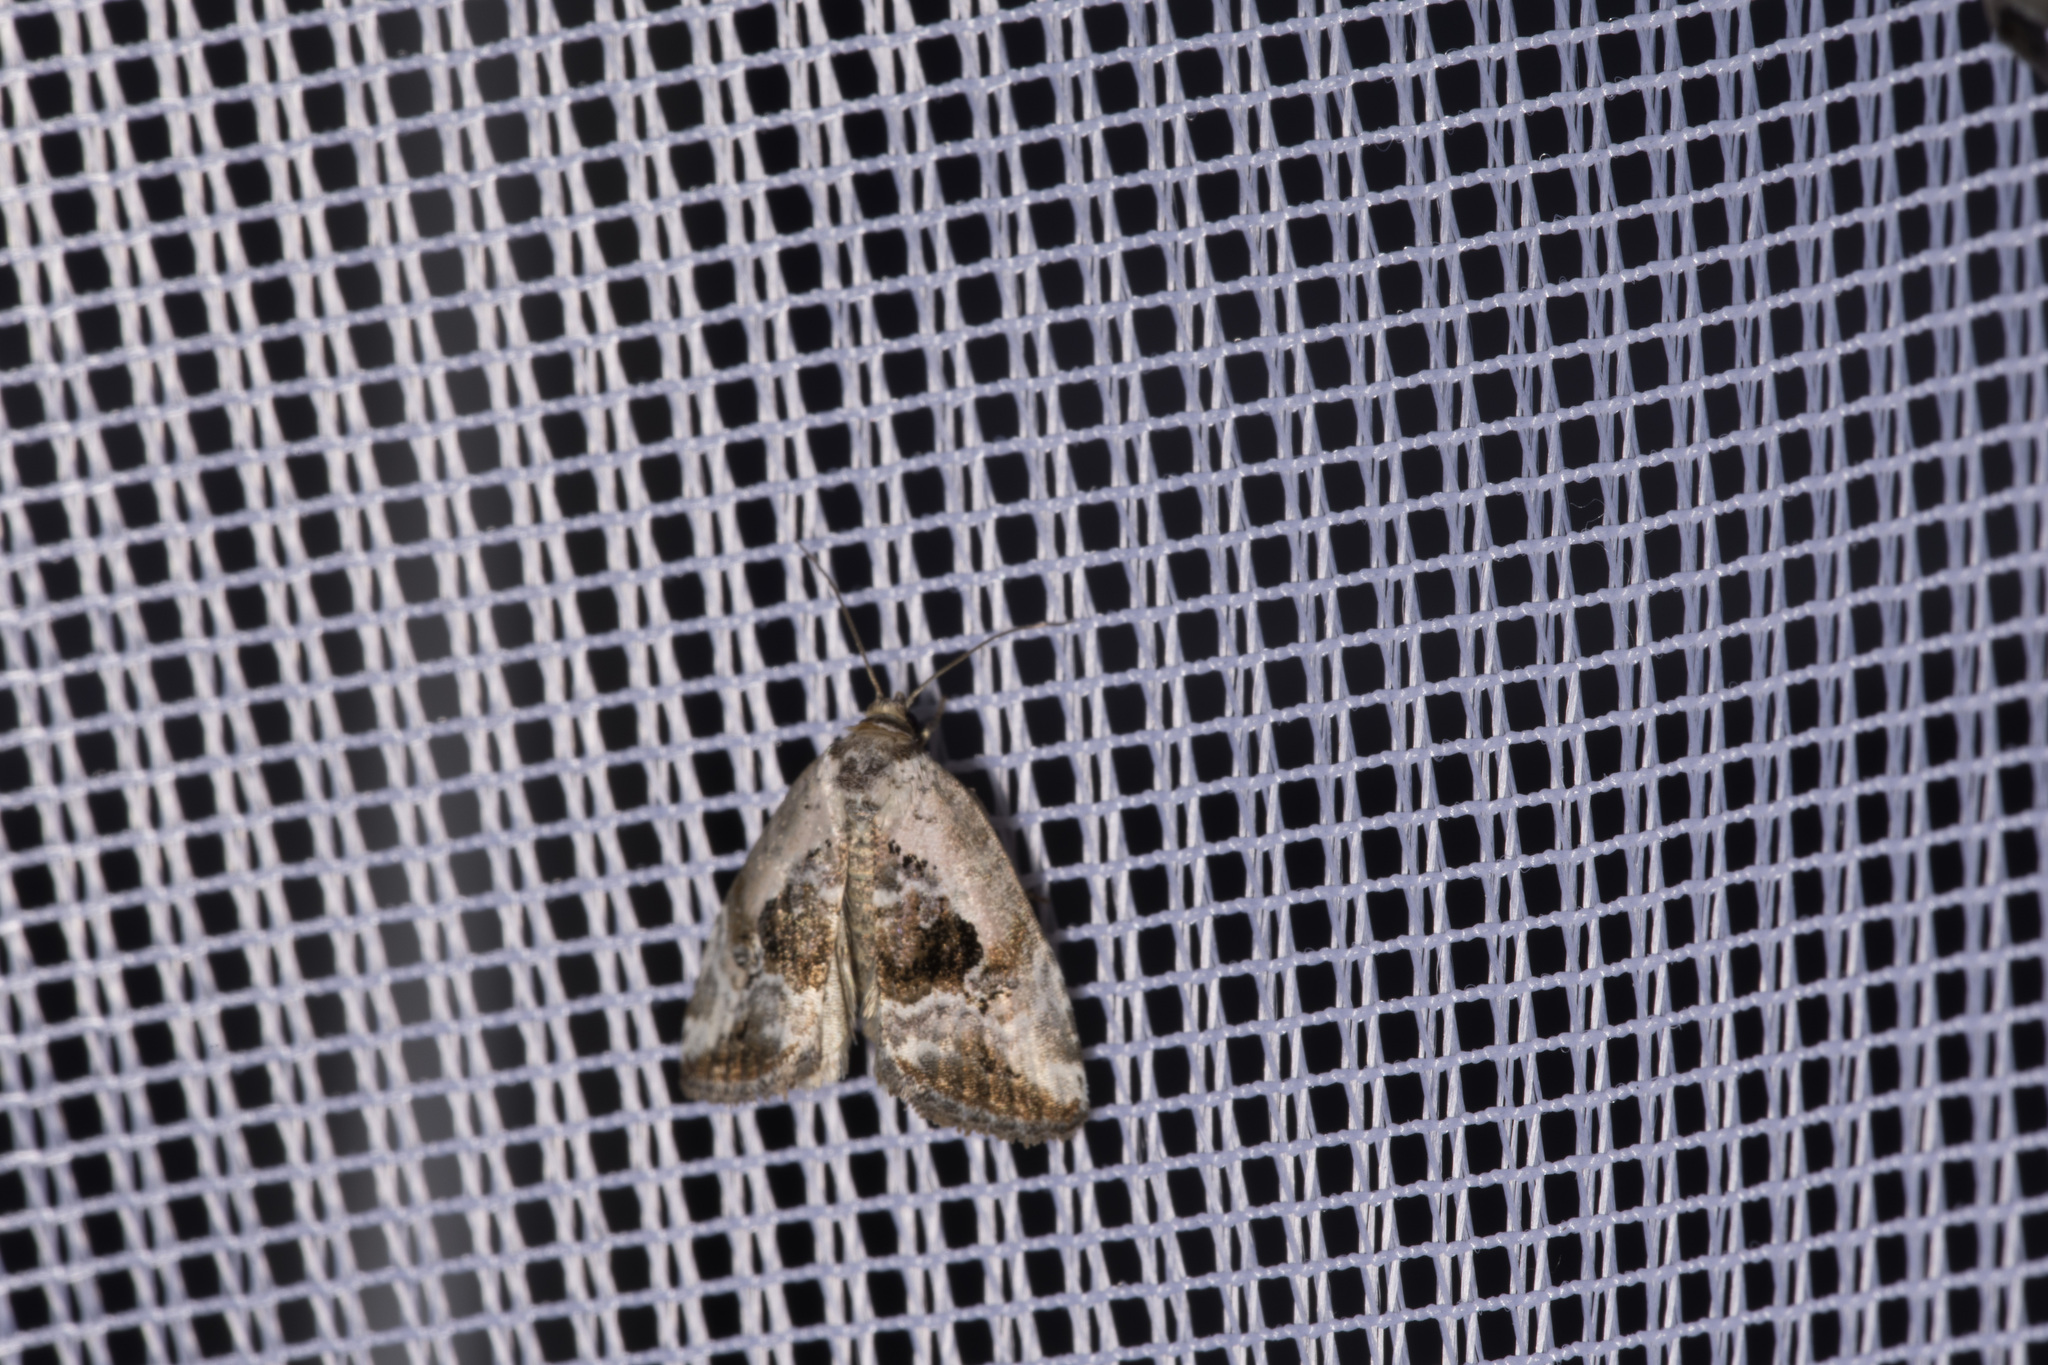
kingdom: Animalia
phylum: Arthropoda
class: Insecta
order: Lepidoptera
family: Noctuidae
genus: Elaphria
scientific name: Elaphria venustula
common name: Rosy marbled
